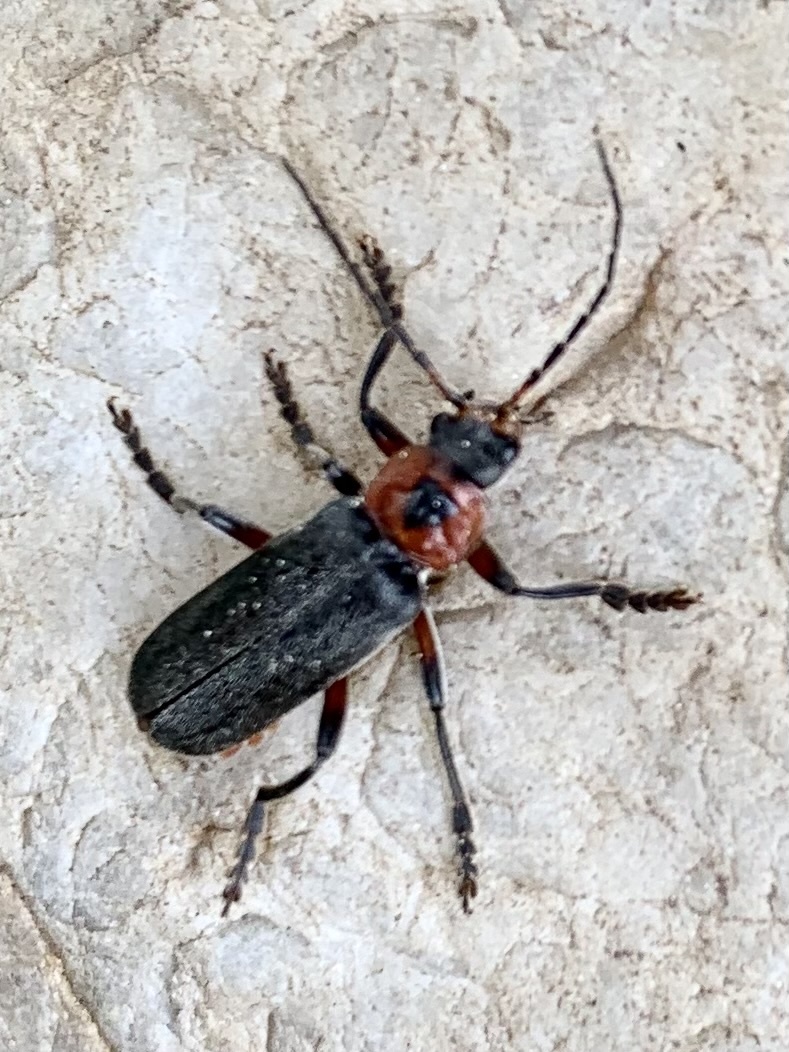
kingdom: Animalia
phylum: Arthropoda
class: Insecta
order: Coleoptera
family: Cantharidae
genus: Cantharis
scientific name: Cantharis rustica
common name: Soldier beetle
